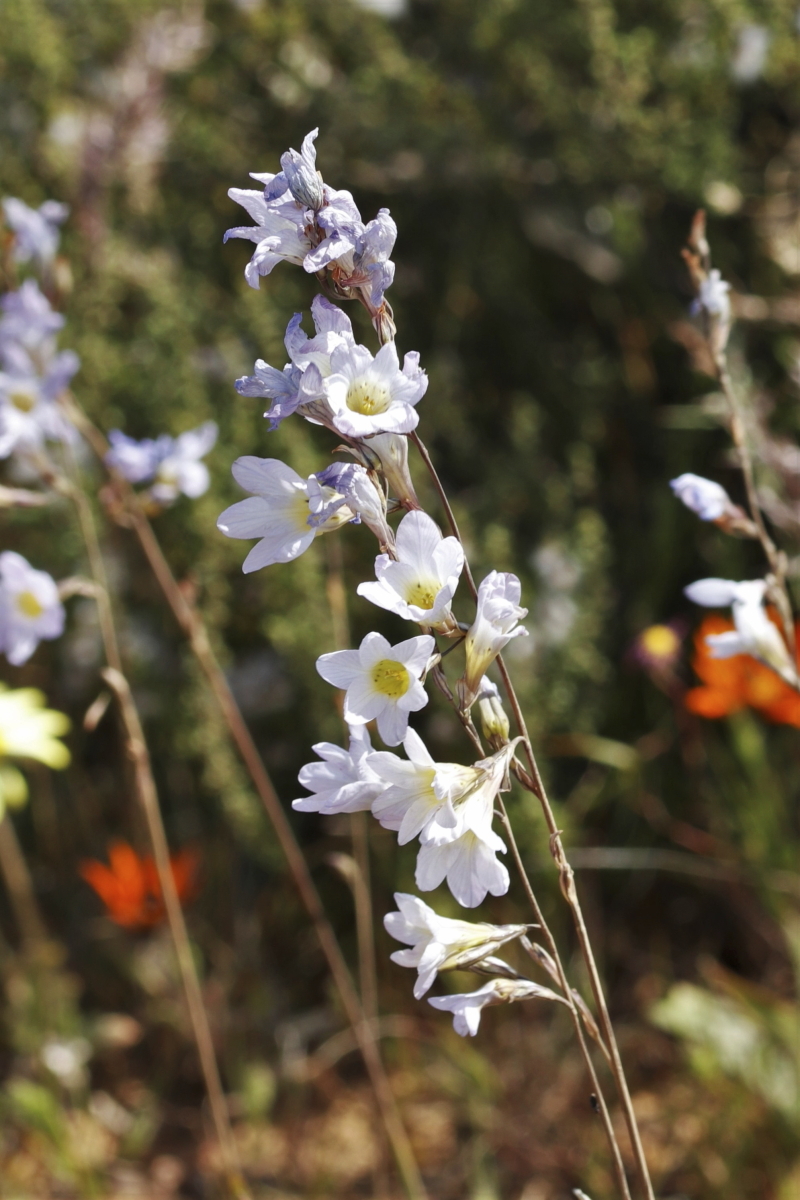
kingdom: Plantae
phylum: Tracheophyta
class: Liliopsida
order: Asparagales
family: Iridaceae
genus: Ixia
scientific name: Ixia rapunculoides
